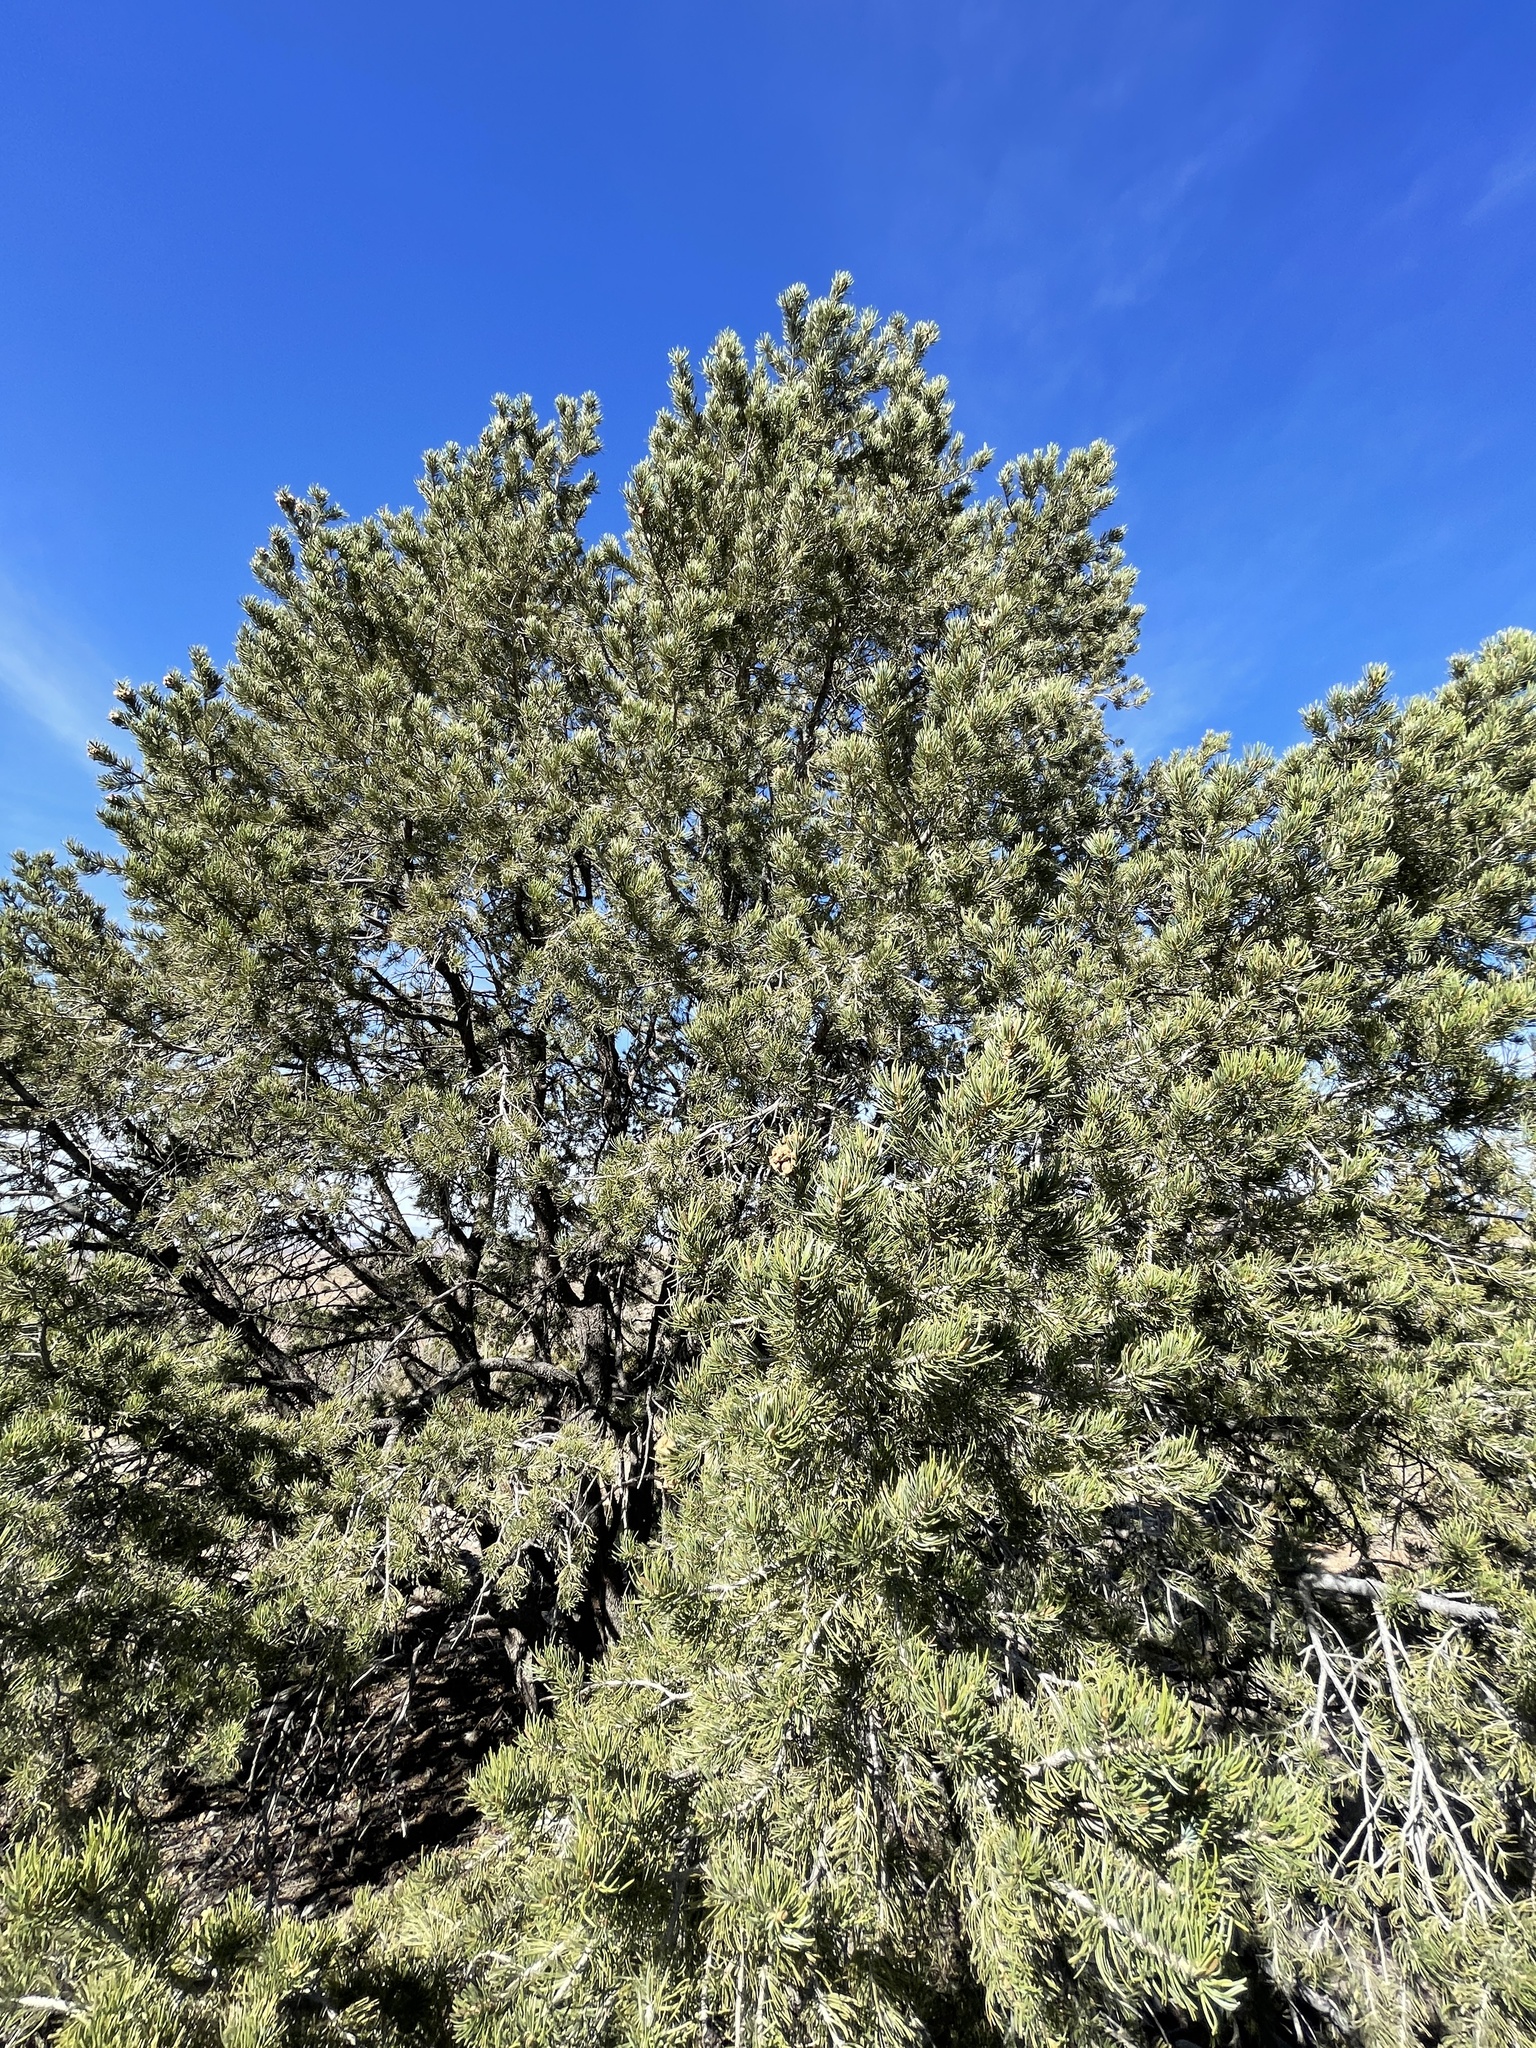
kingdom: Plantae
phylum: Tracheophyta
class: Pinopsida
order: Pinales
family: Pinaceae
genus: Pinus
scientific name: Pinus edulis
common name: Colorado pinyon
